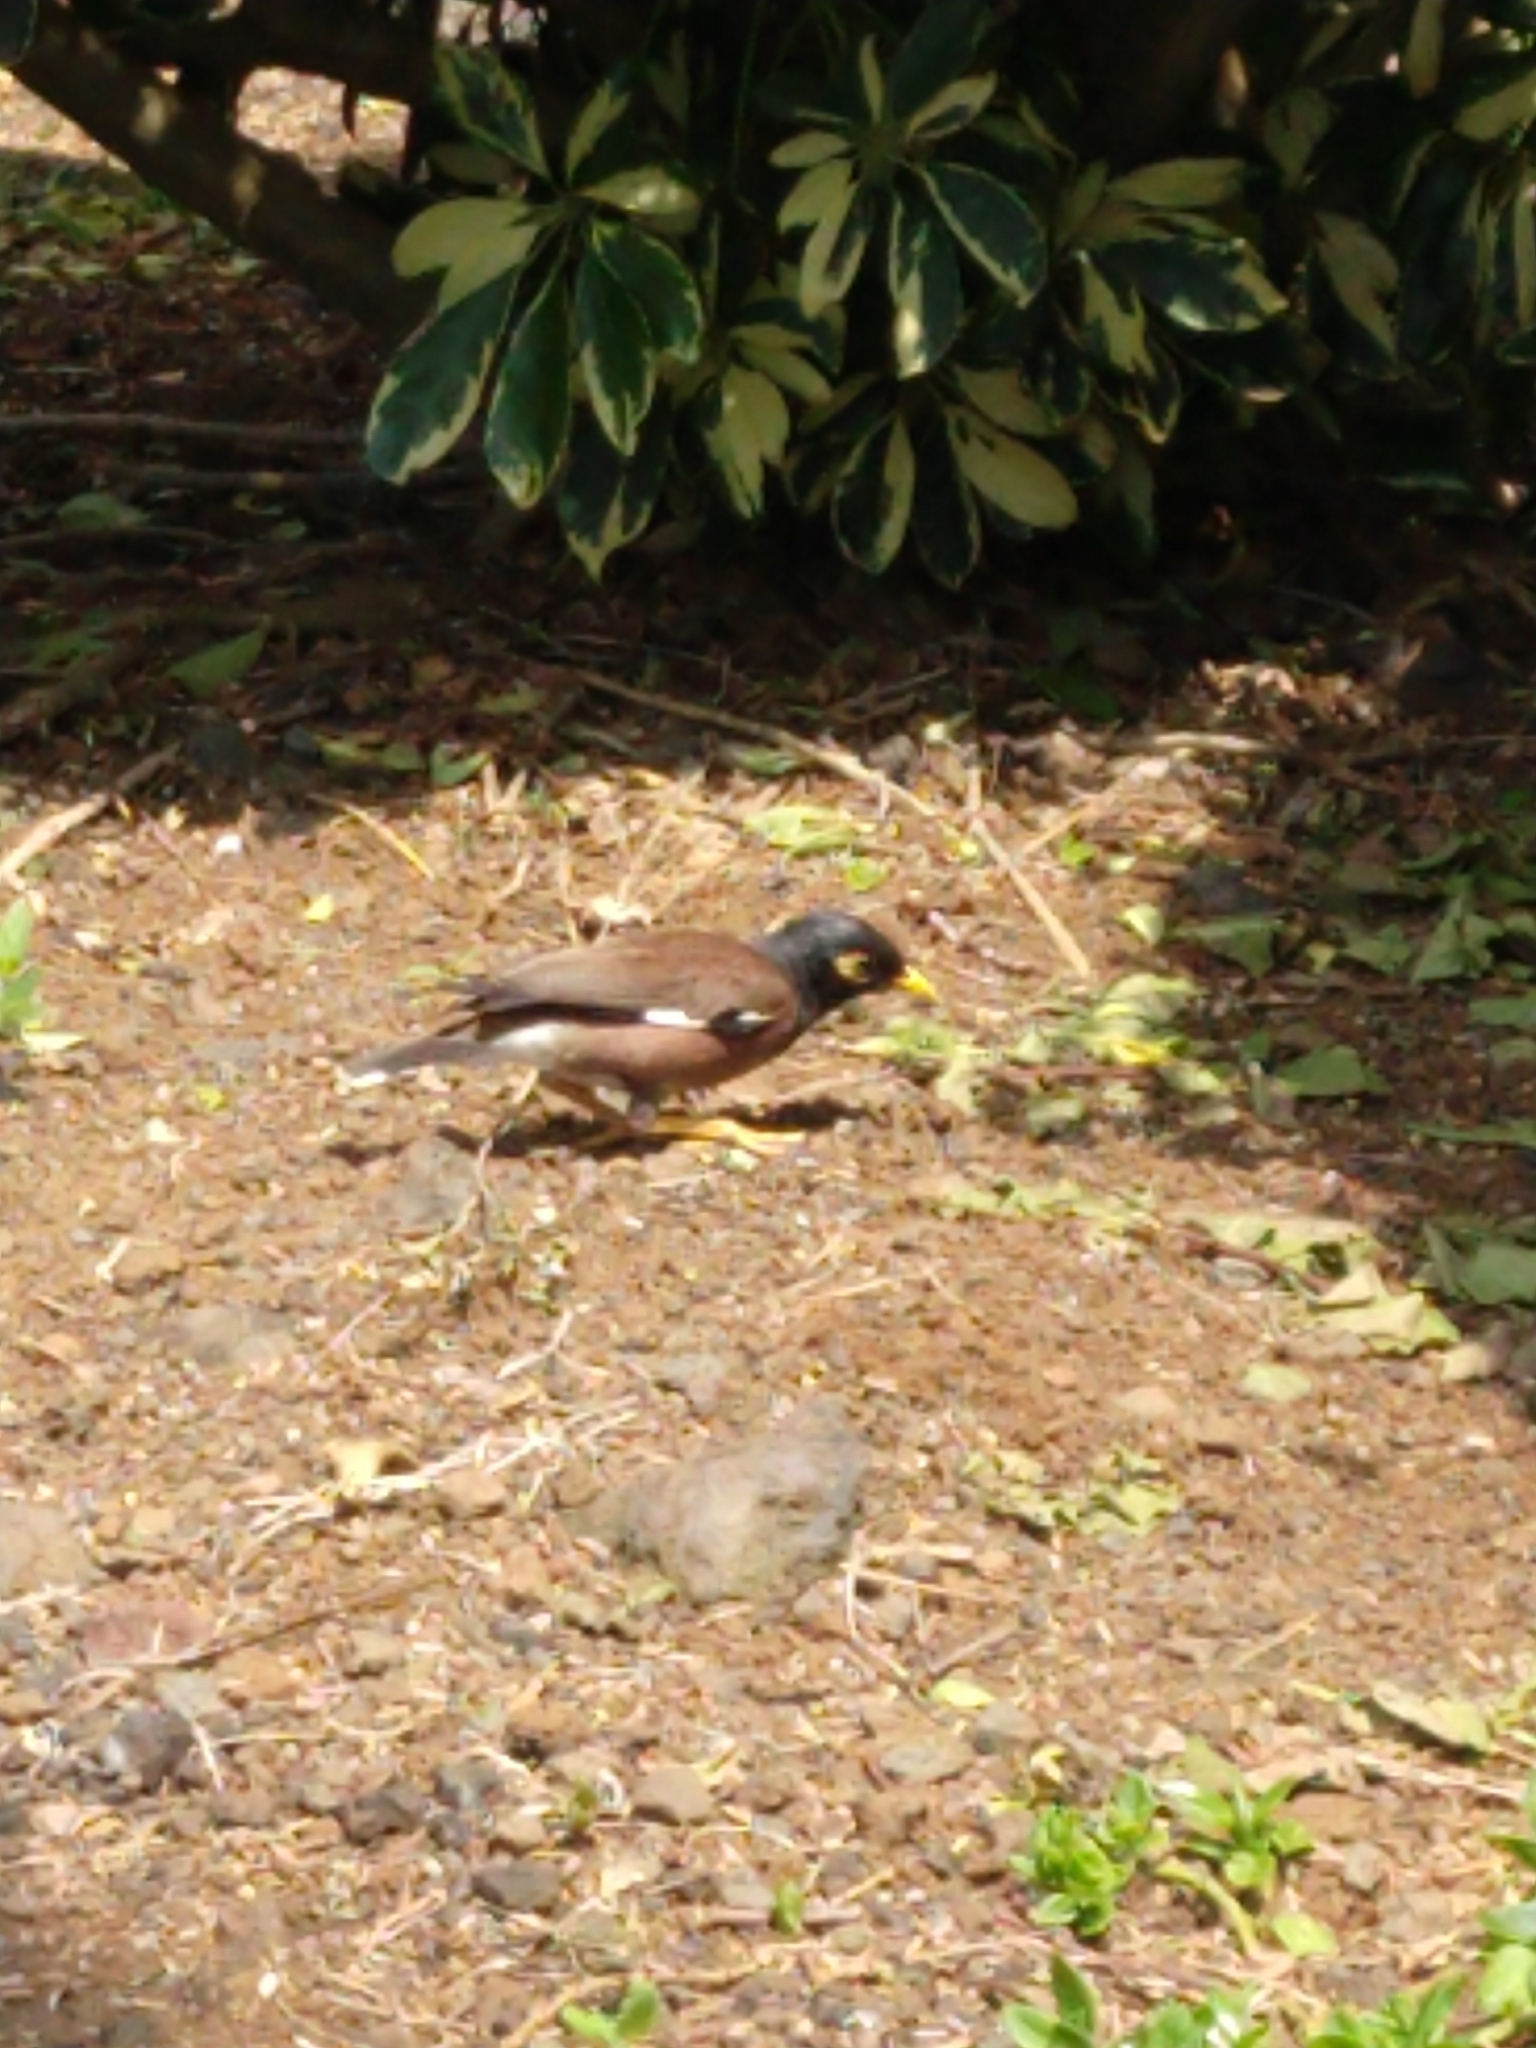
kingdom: Animalia
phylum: Chordata
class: Aves
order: Passeriformes
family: Sturnidae
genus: Acridotheres
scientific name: Acridotheres tristis
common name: Common myna
